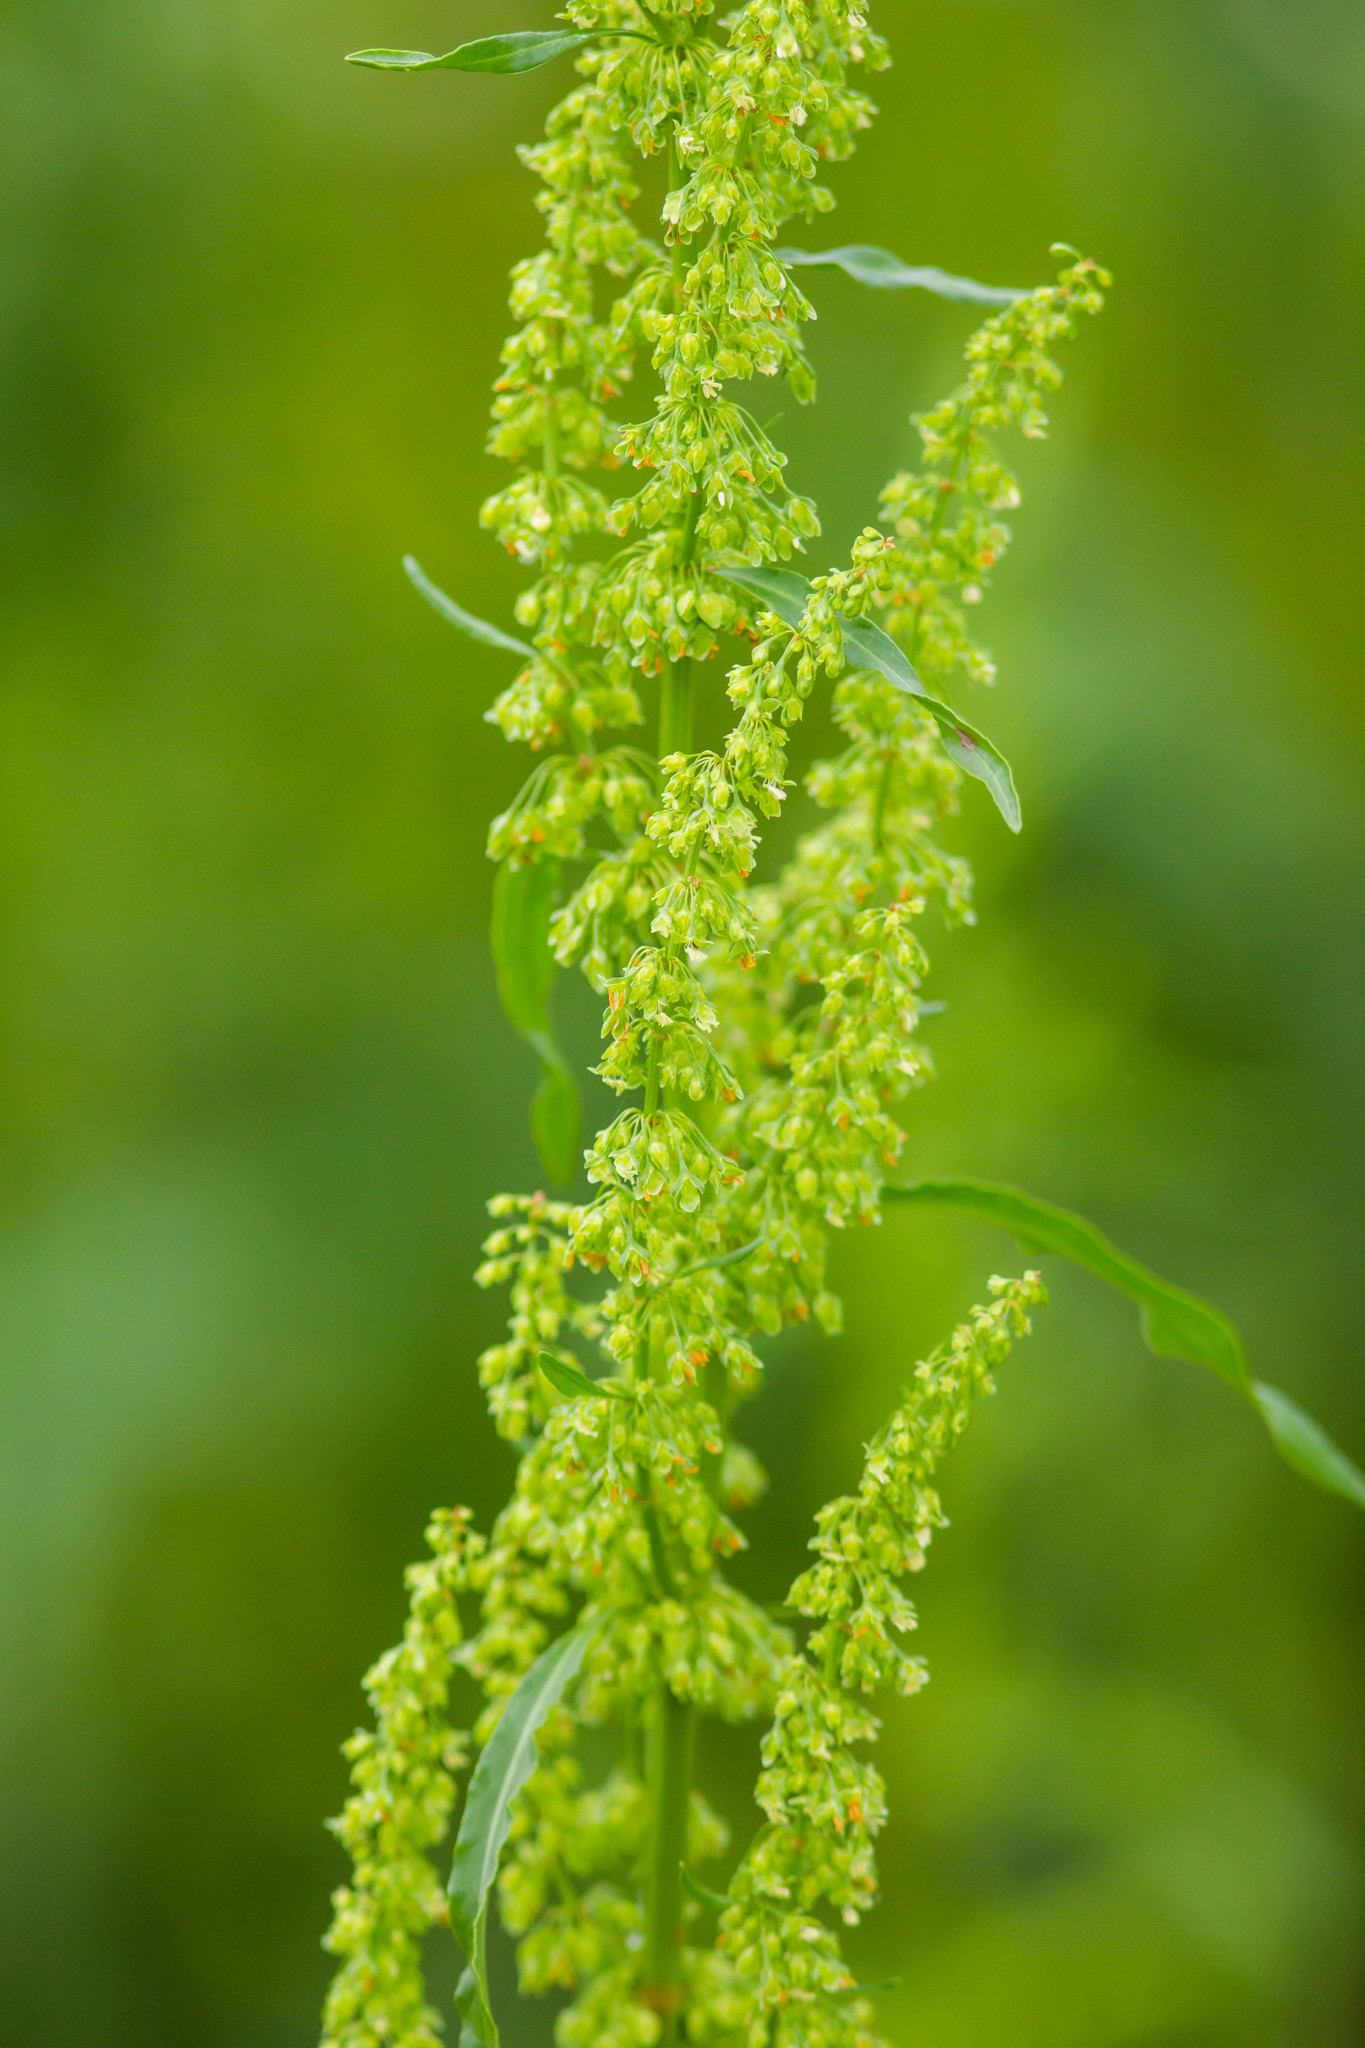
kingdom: Plantae
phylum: Tracheophyta
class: Magnoliopsida
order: Caryophyllales
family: Polygonaceae
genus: Rumex
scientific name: Rumex crispus
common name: Curled dock
